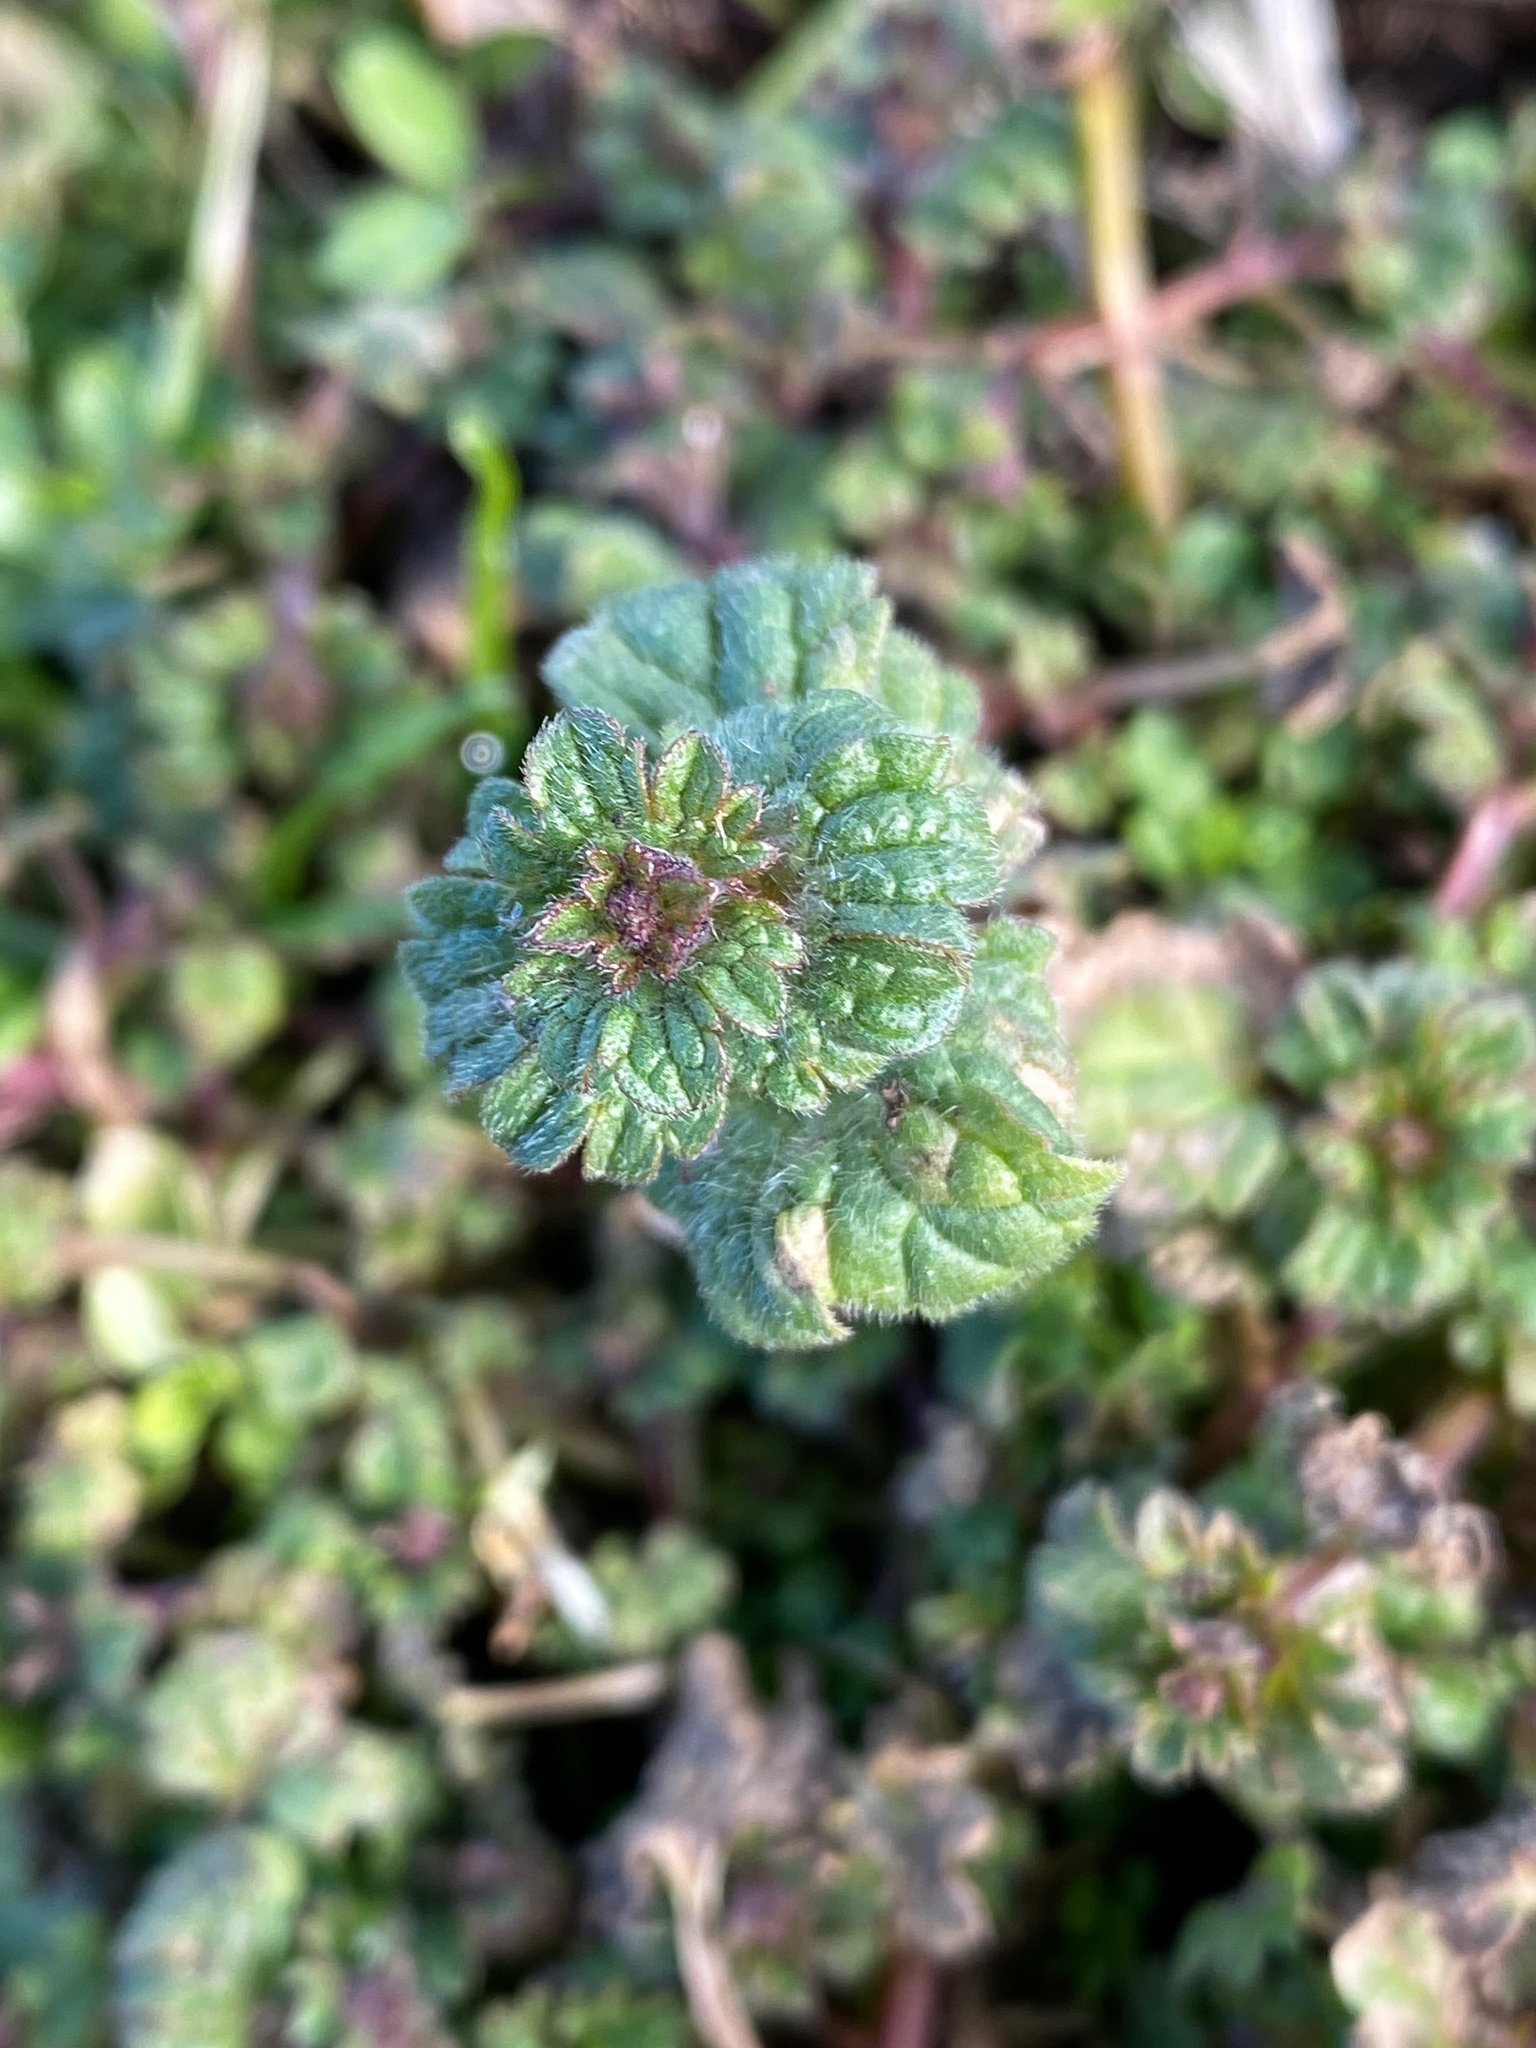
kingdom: Plantae
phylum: Tracheophyta
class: Magnoliopsida
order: Lamiales
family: Lamiaceae
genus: Lamium
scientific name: Lamium amplexicaule
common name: Henbit dead-nettle
